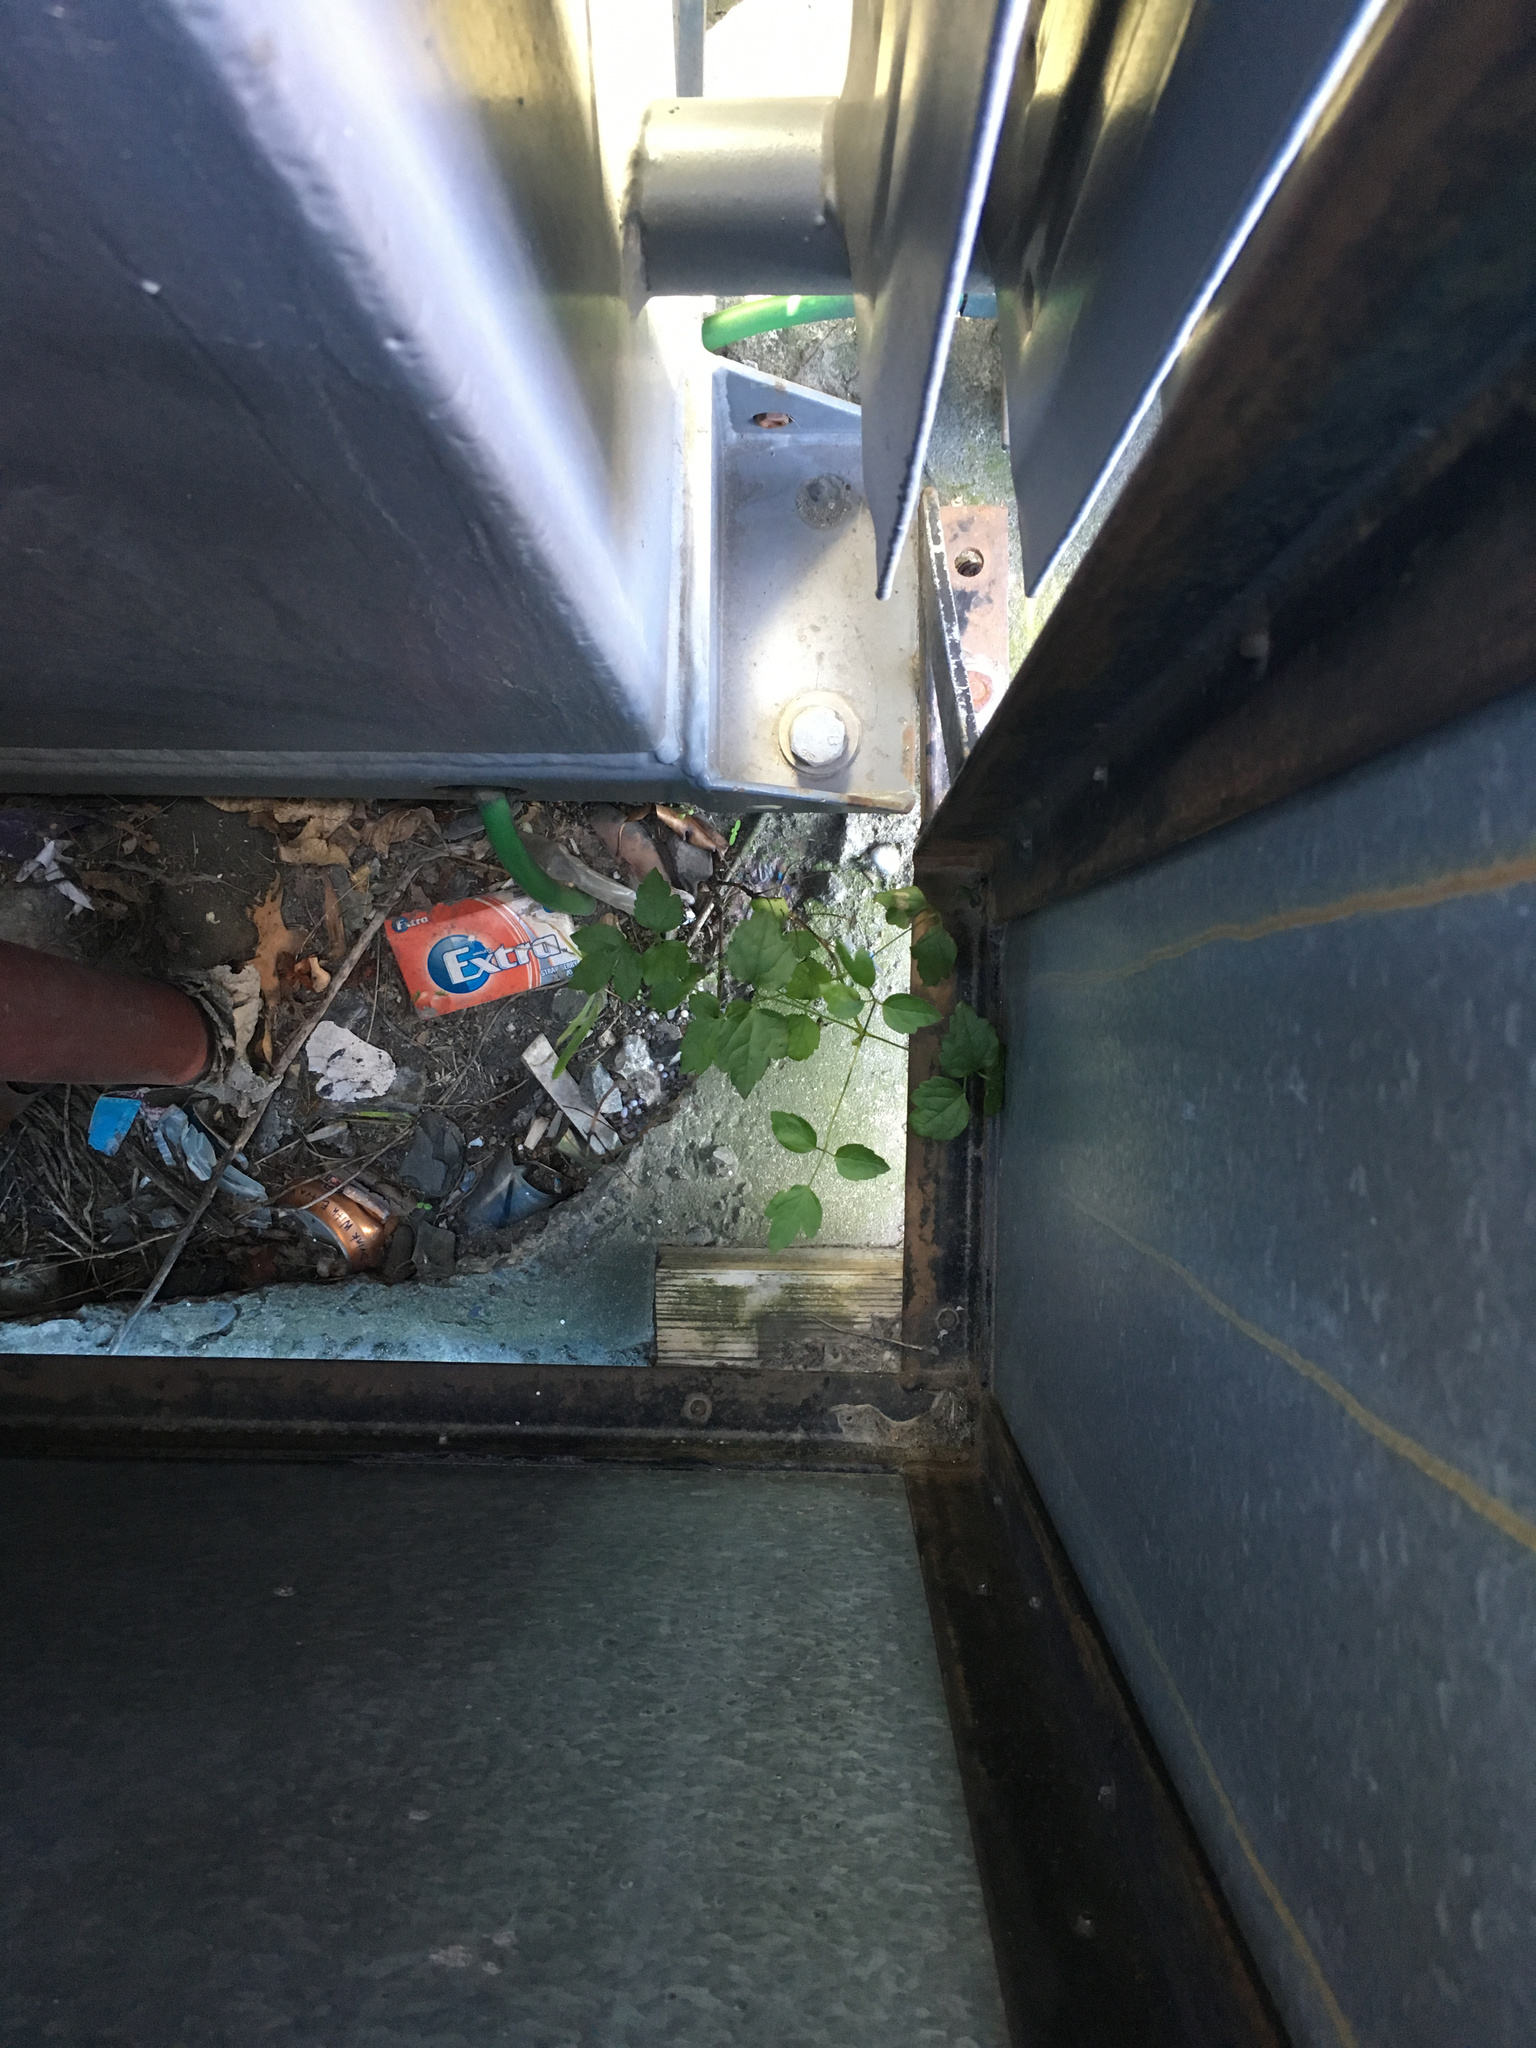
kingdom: Plantae
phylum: Tracheophyta
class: Magnoliopsida
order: Ranunculales
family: Ranunculaceae
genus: Clematis
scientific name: Clematis vitalba
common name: Evergreen clematis
